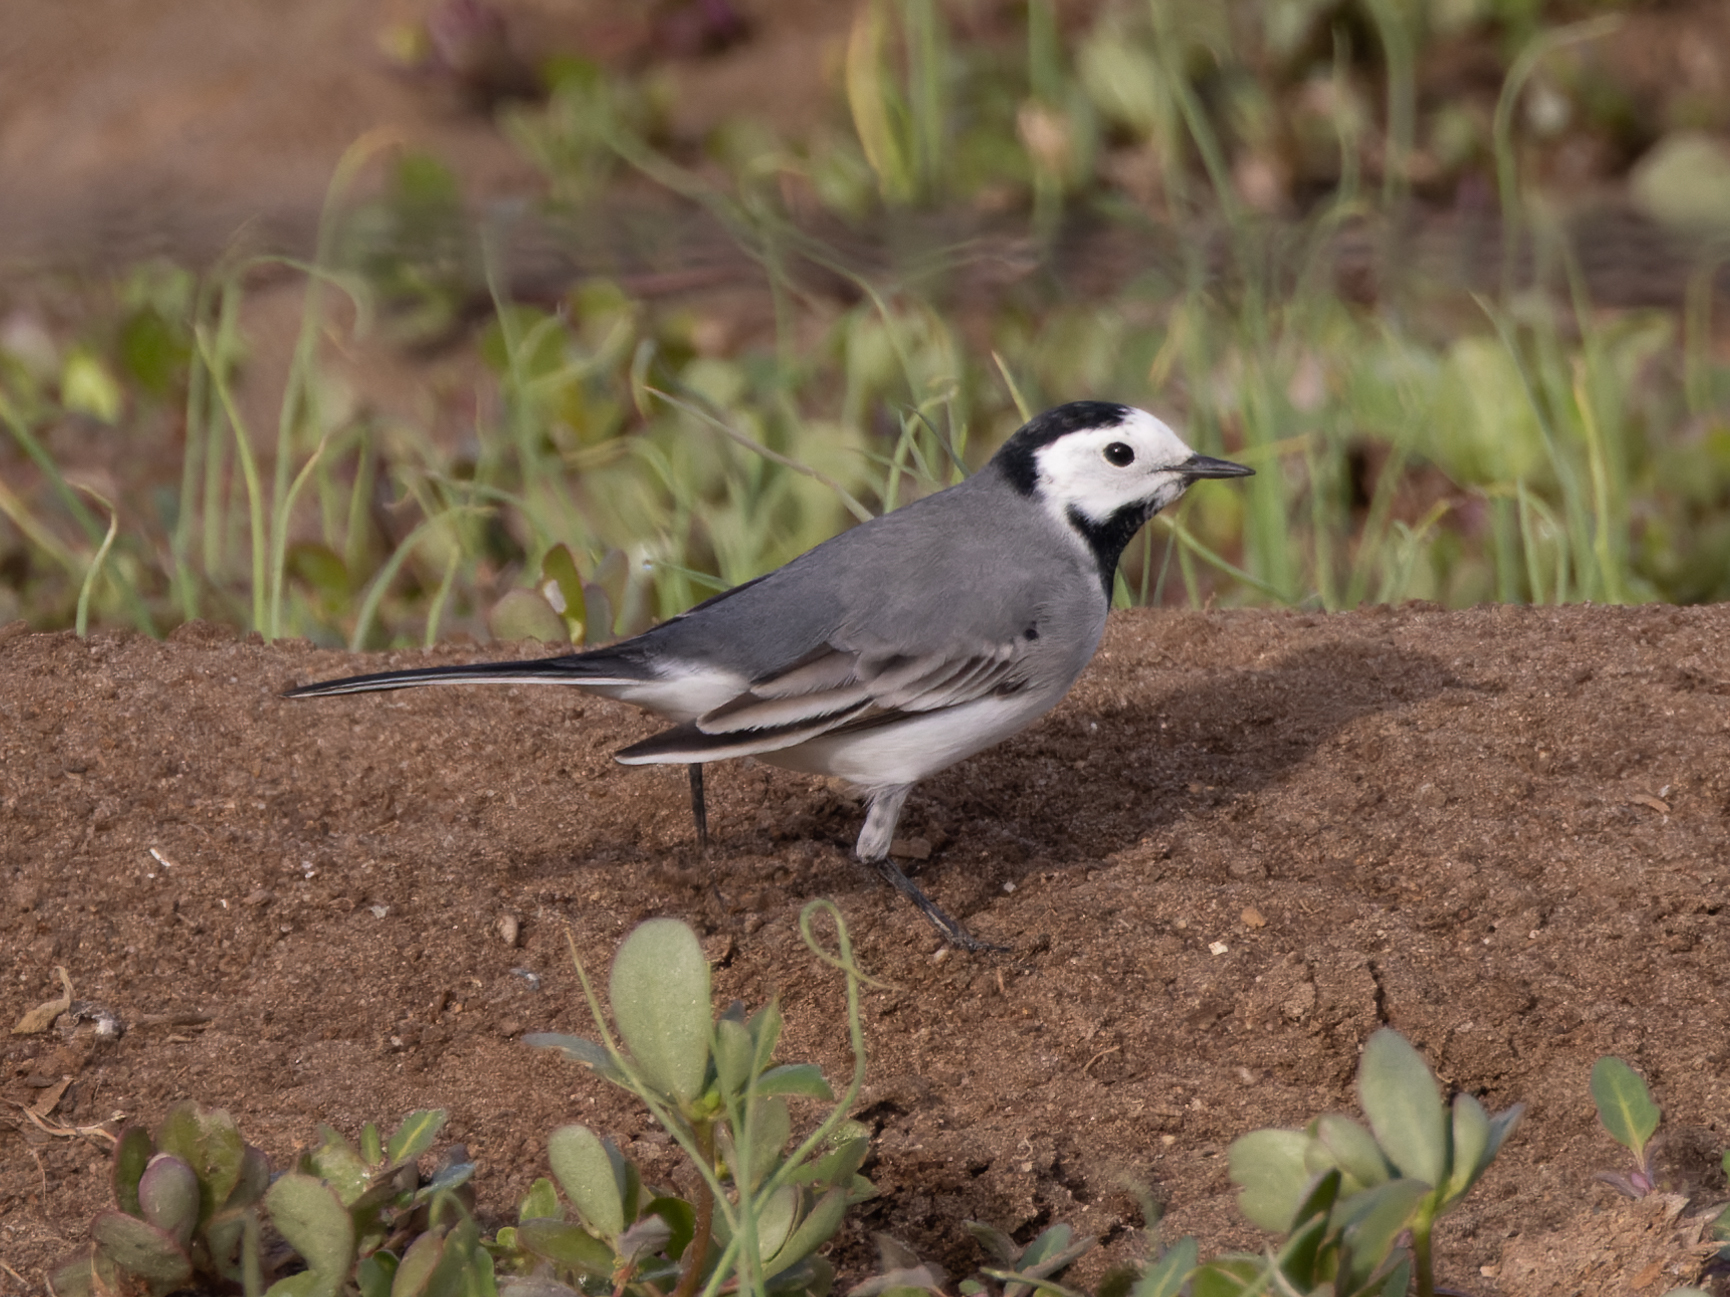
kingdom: Animalia
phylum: Chordata
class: Aves
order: Passeriformes
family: Motacillidae
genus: Motacilla
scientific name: Motacilla alba
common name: White wagtail
